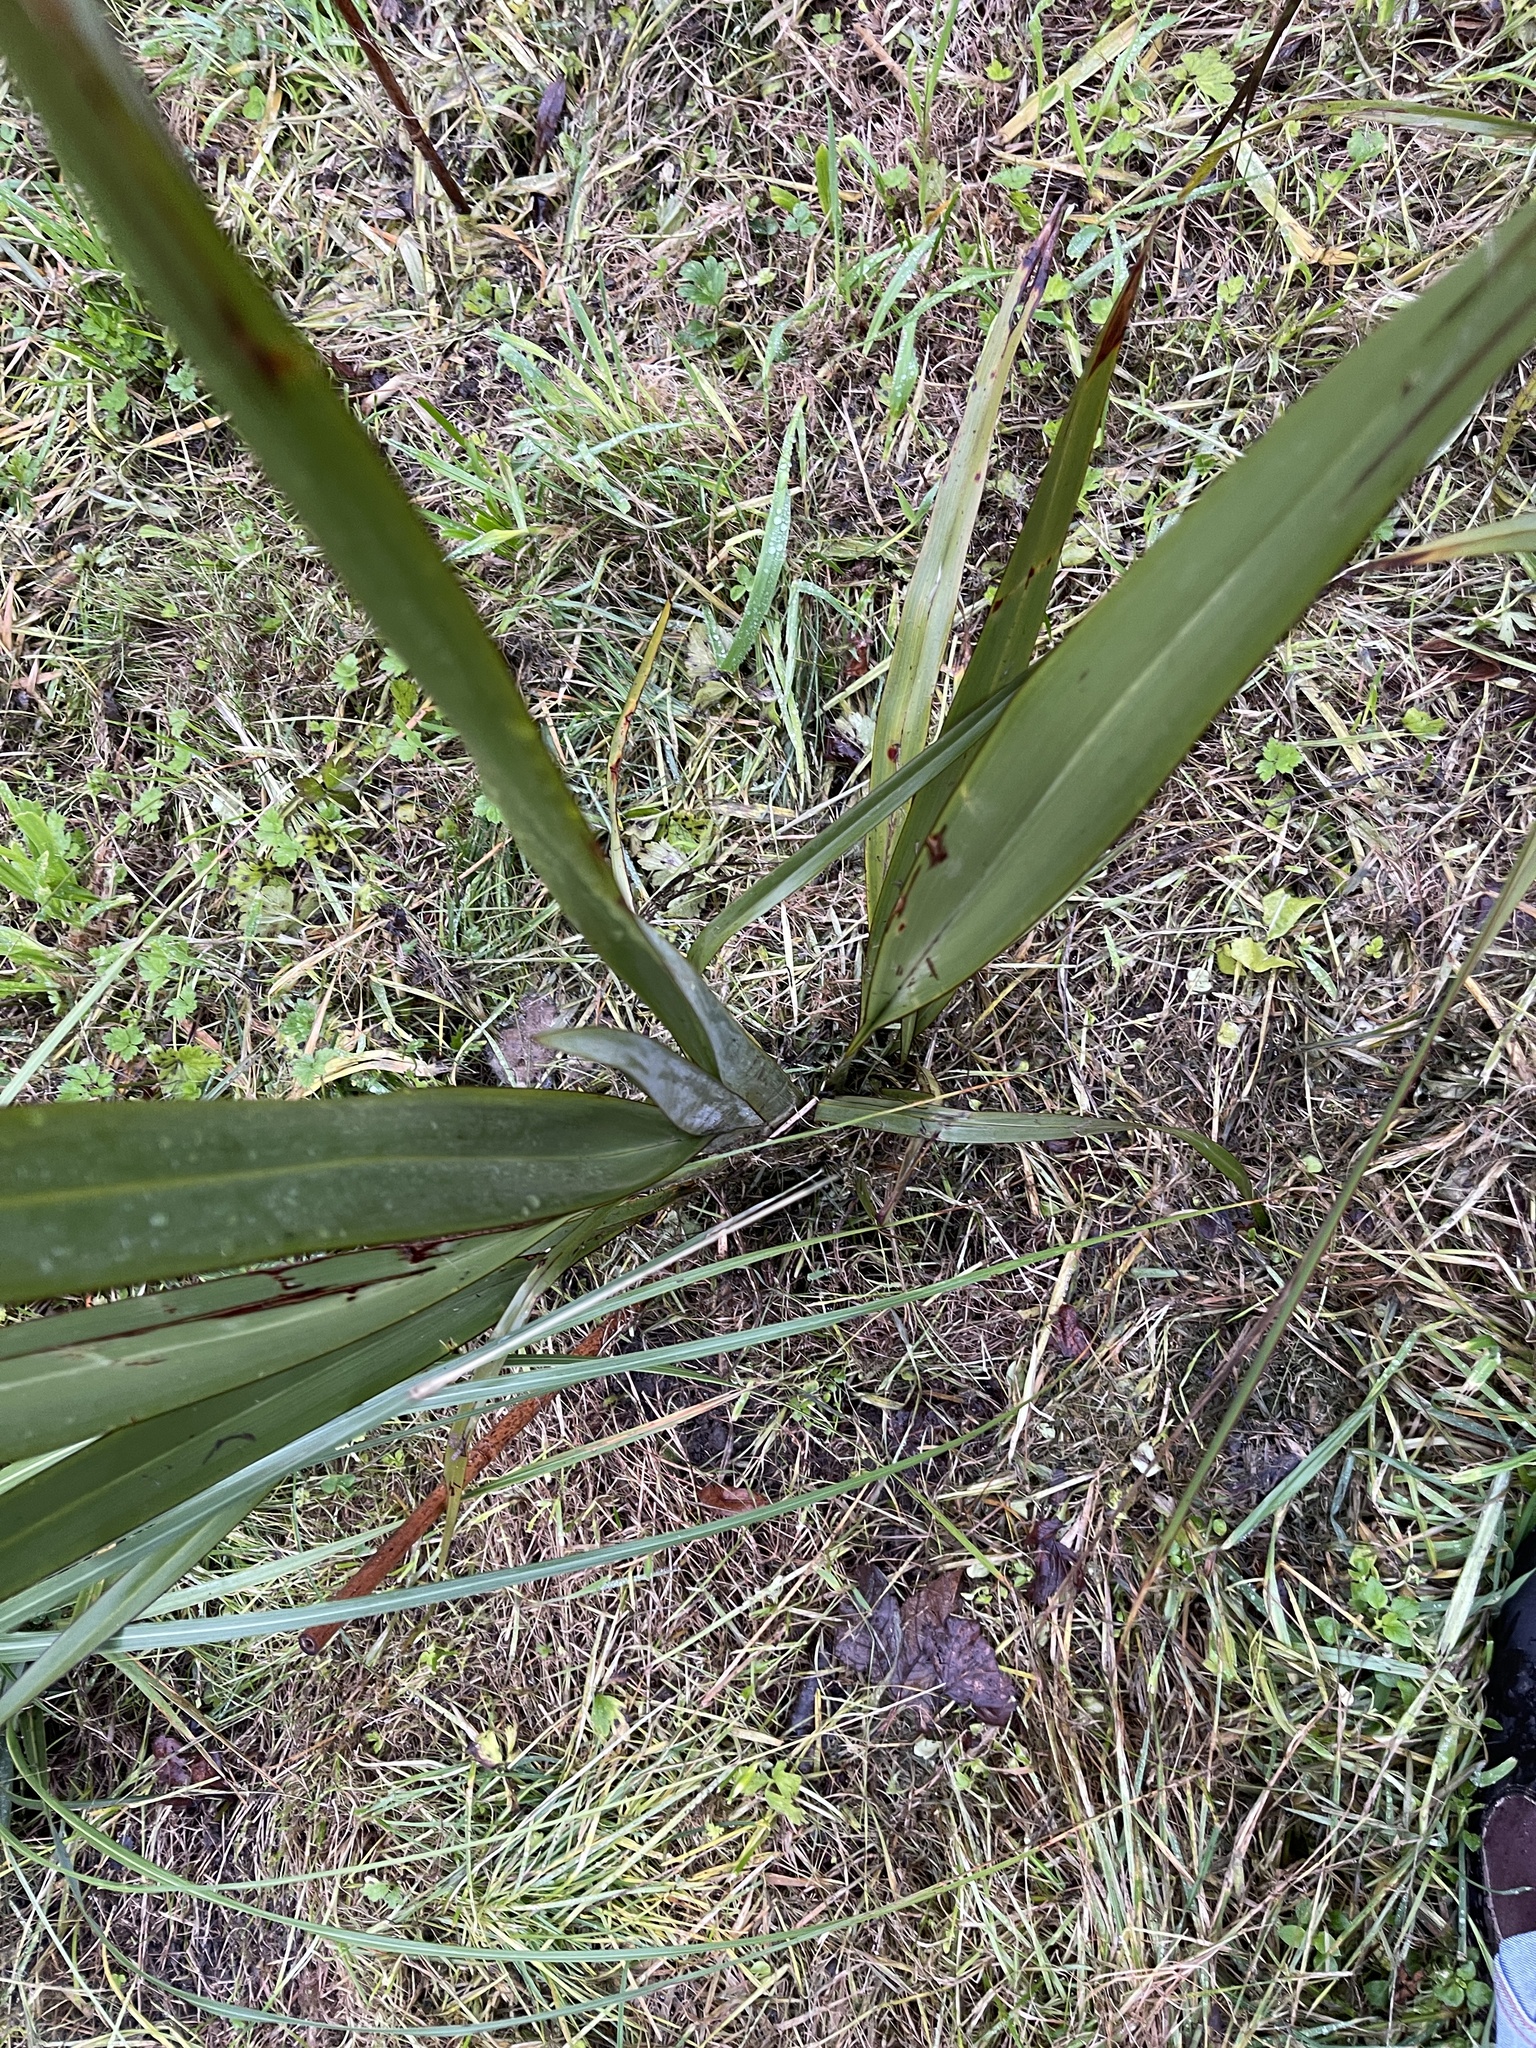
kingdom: Plantae
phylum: Tracheophyta
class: Liliopsida
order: Asparagales
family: Asphodelaceae
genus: Phormium
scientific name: Phormium colensoi
